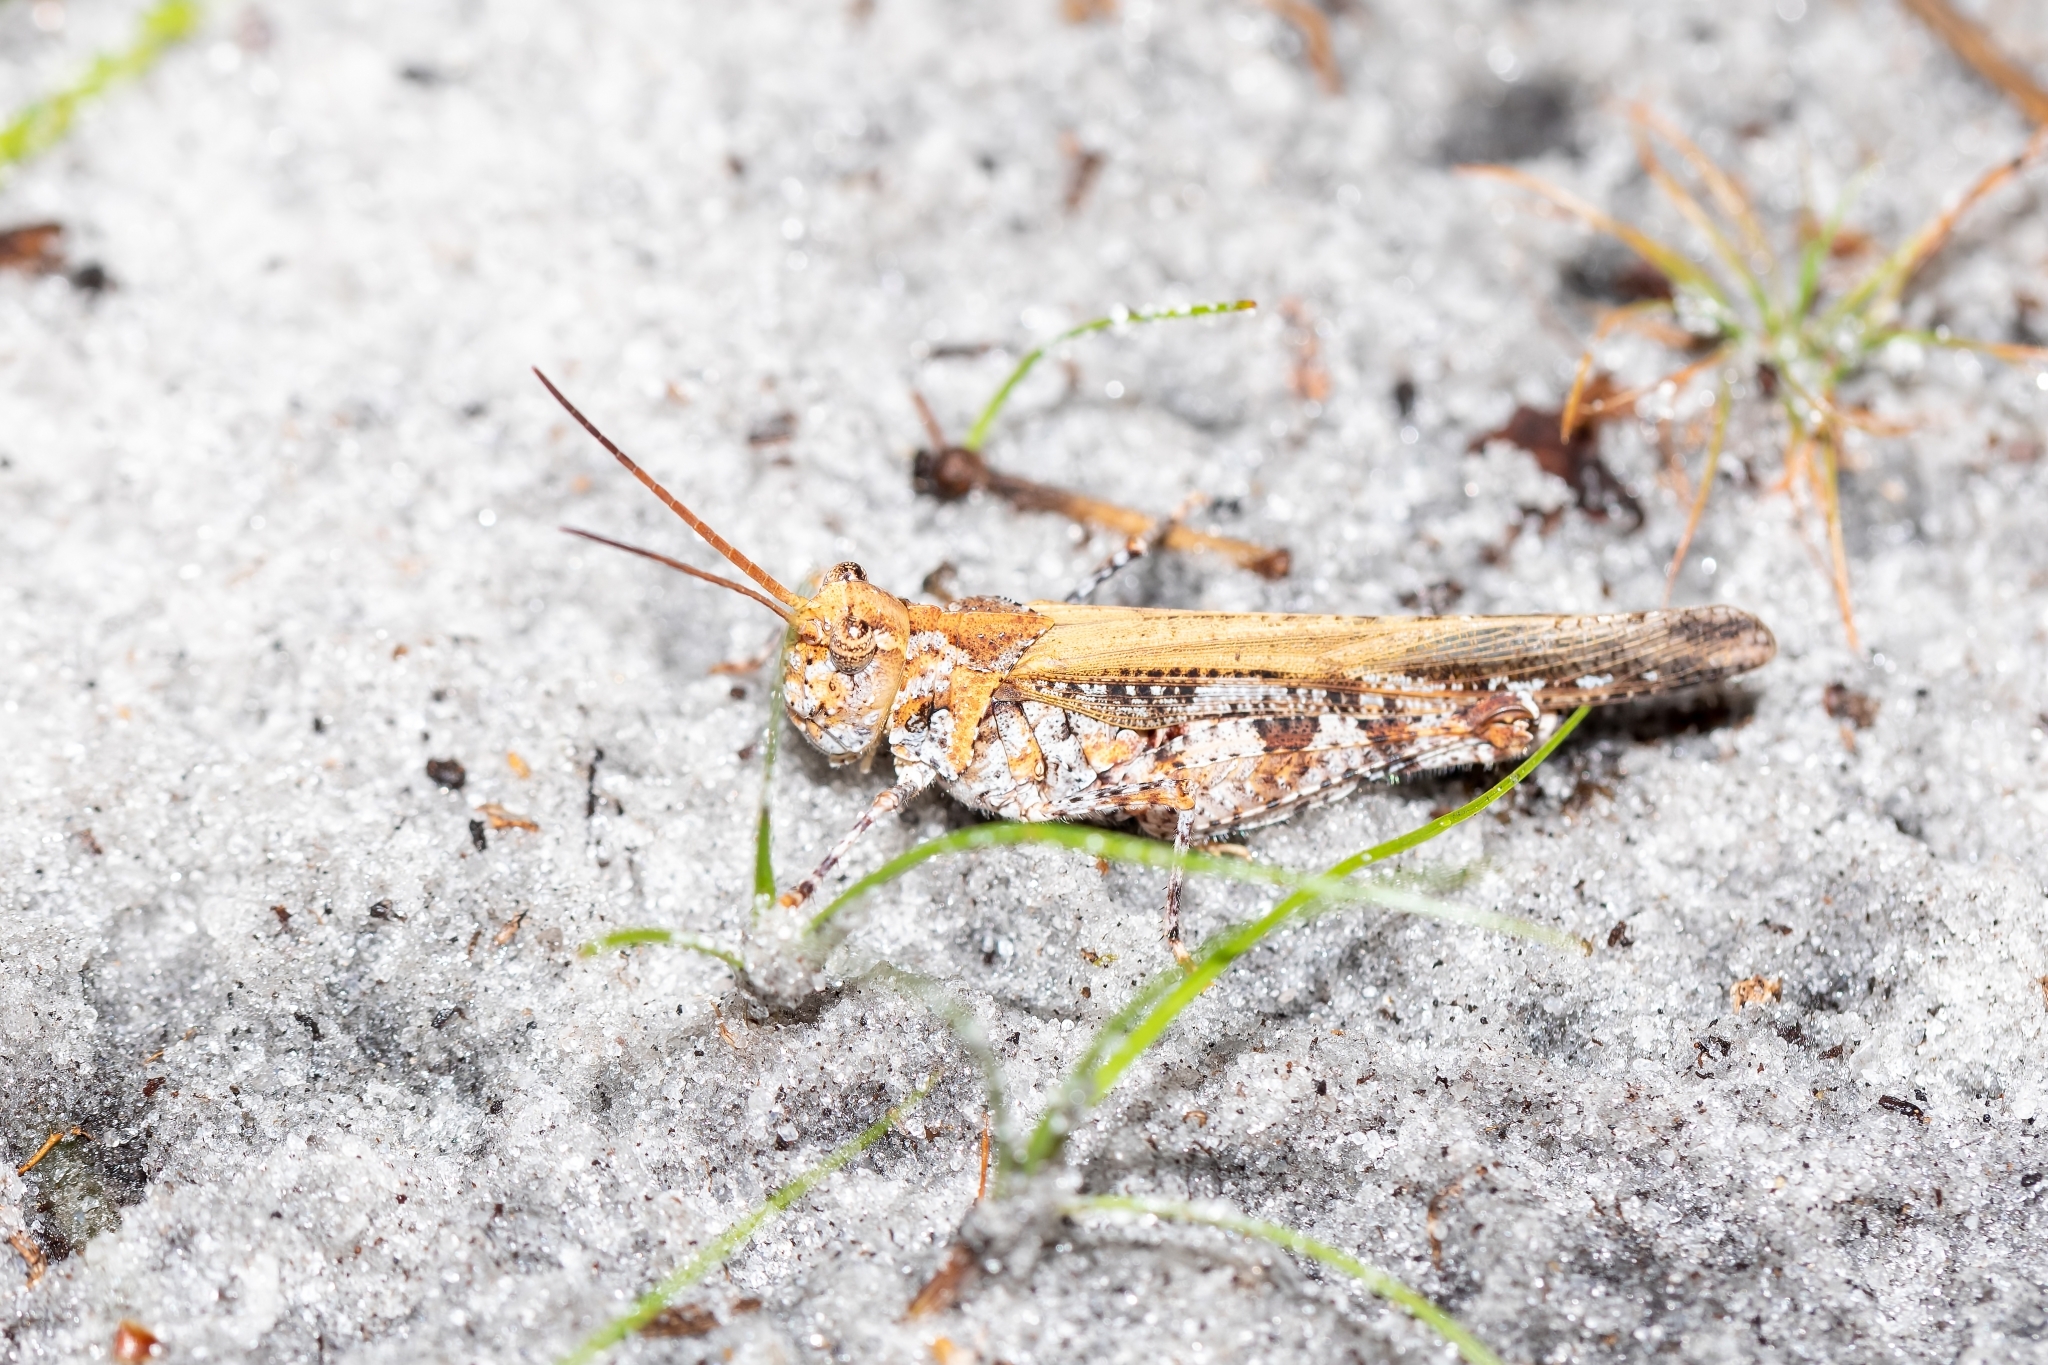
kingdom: Animalia
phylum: Arthropoda
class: Insecta
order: Orthoptera
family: Acrididae
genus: Psinidia
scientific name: Psinidia fenestralis
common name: Long-horned locust
